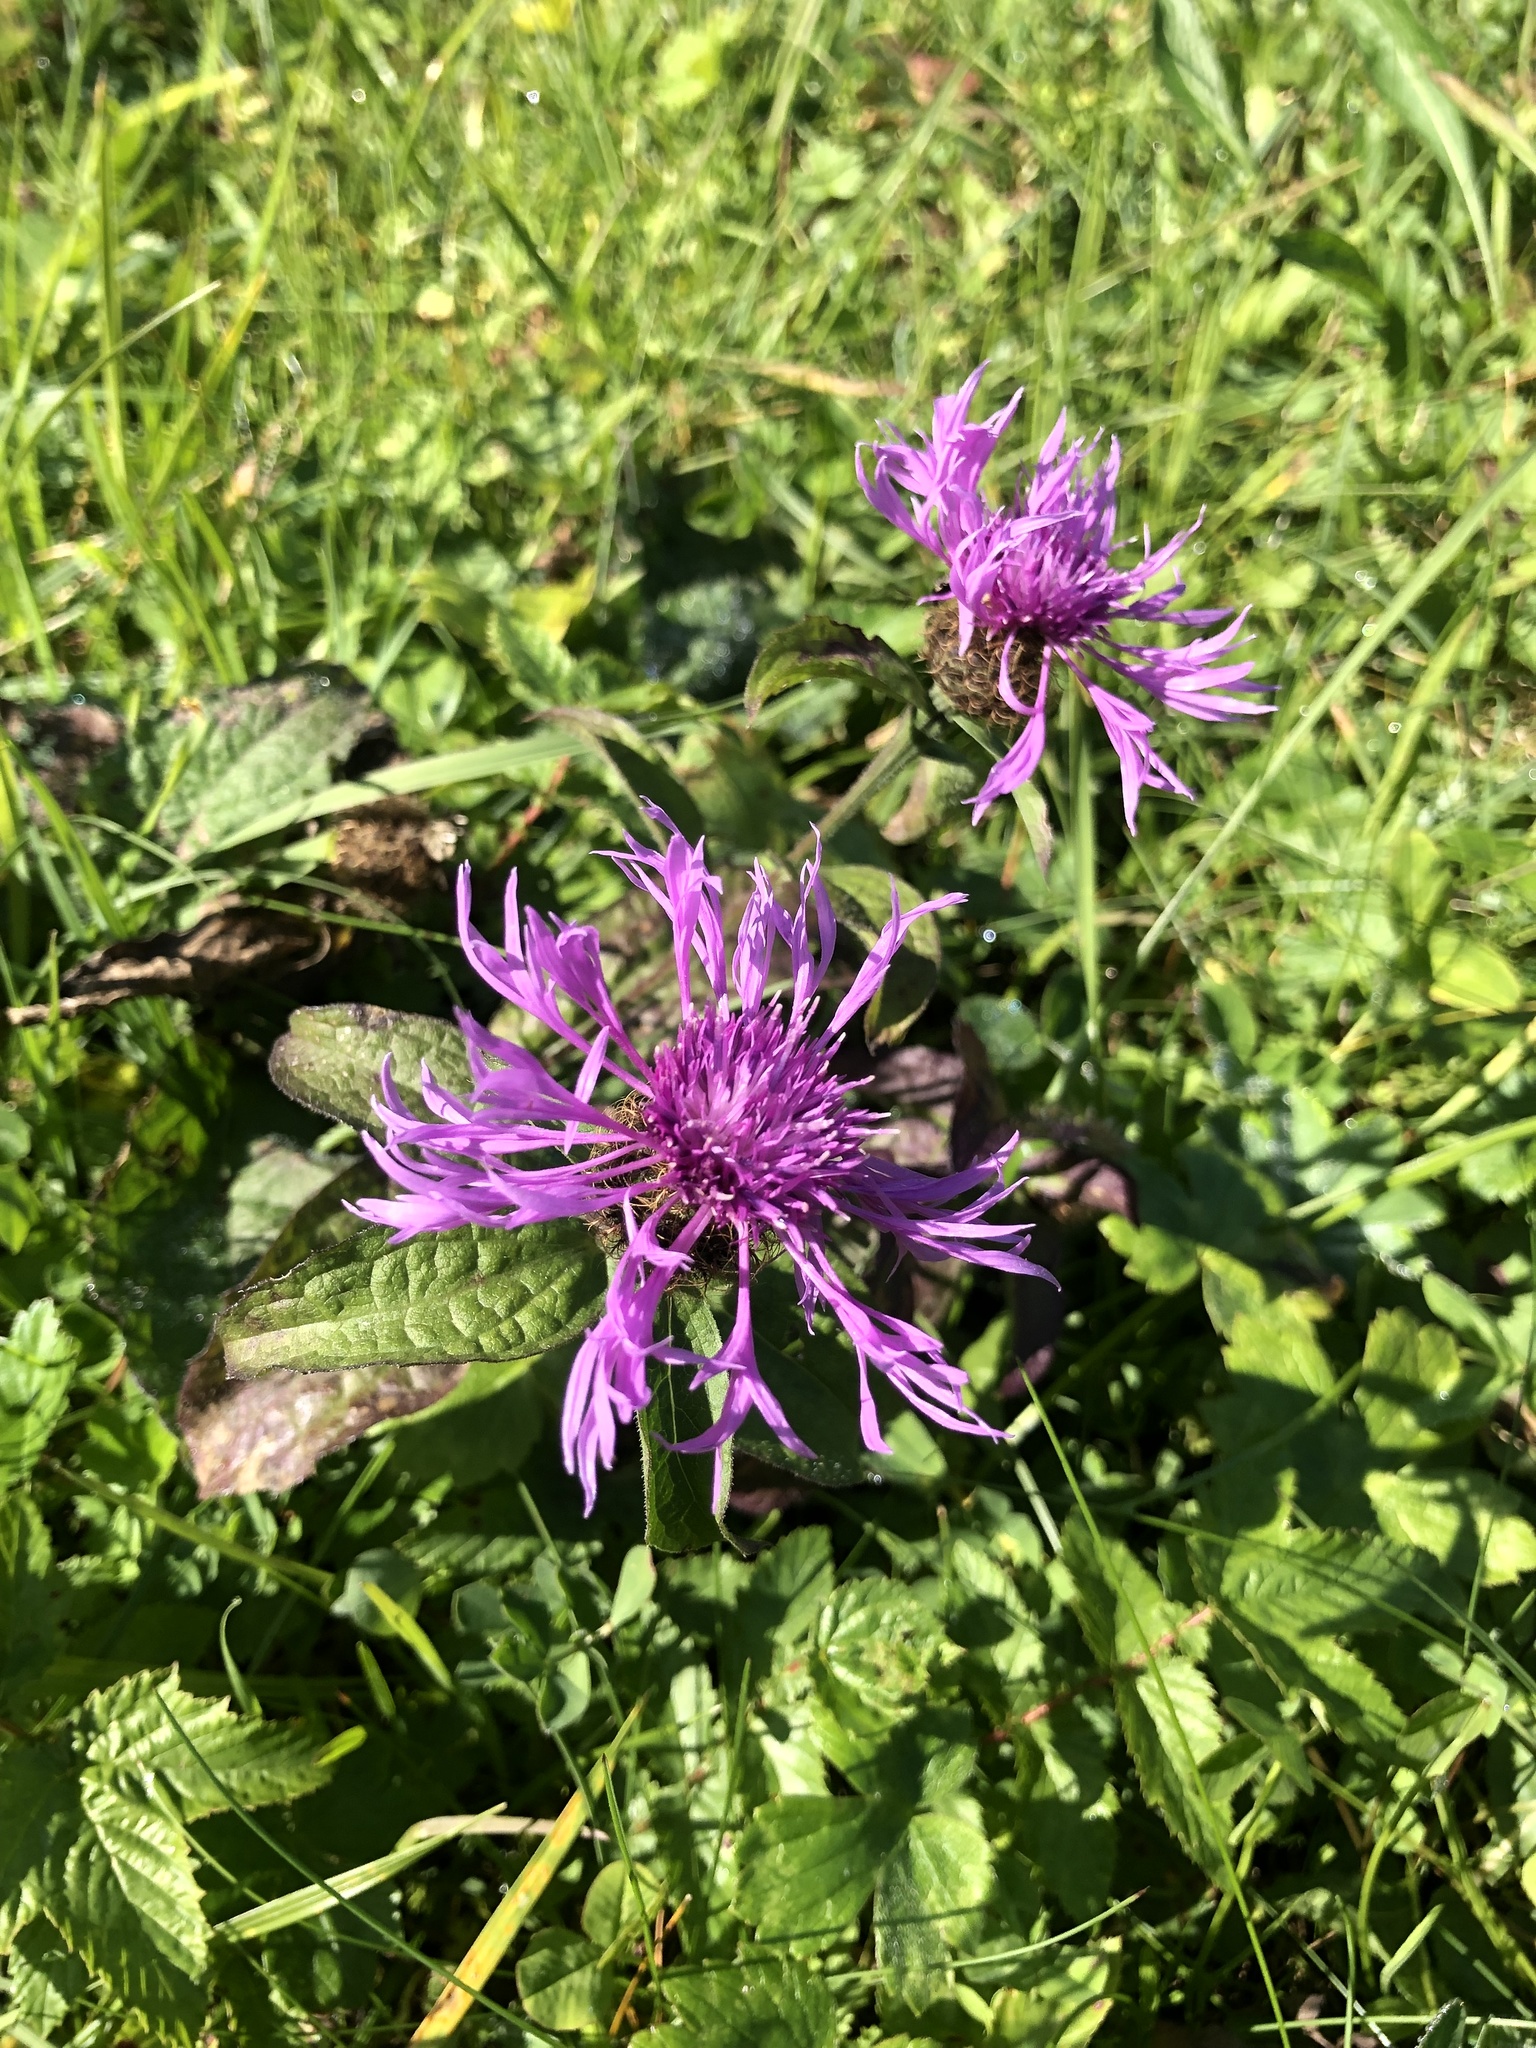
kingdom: Plantae
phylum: Tracheophyta
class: Magnoliopsida
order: Asterales
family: Asteraceae
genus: Centaurea
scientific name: Centaurea pseudophrygia
